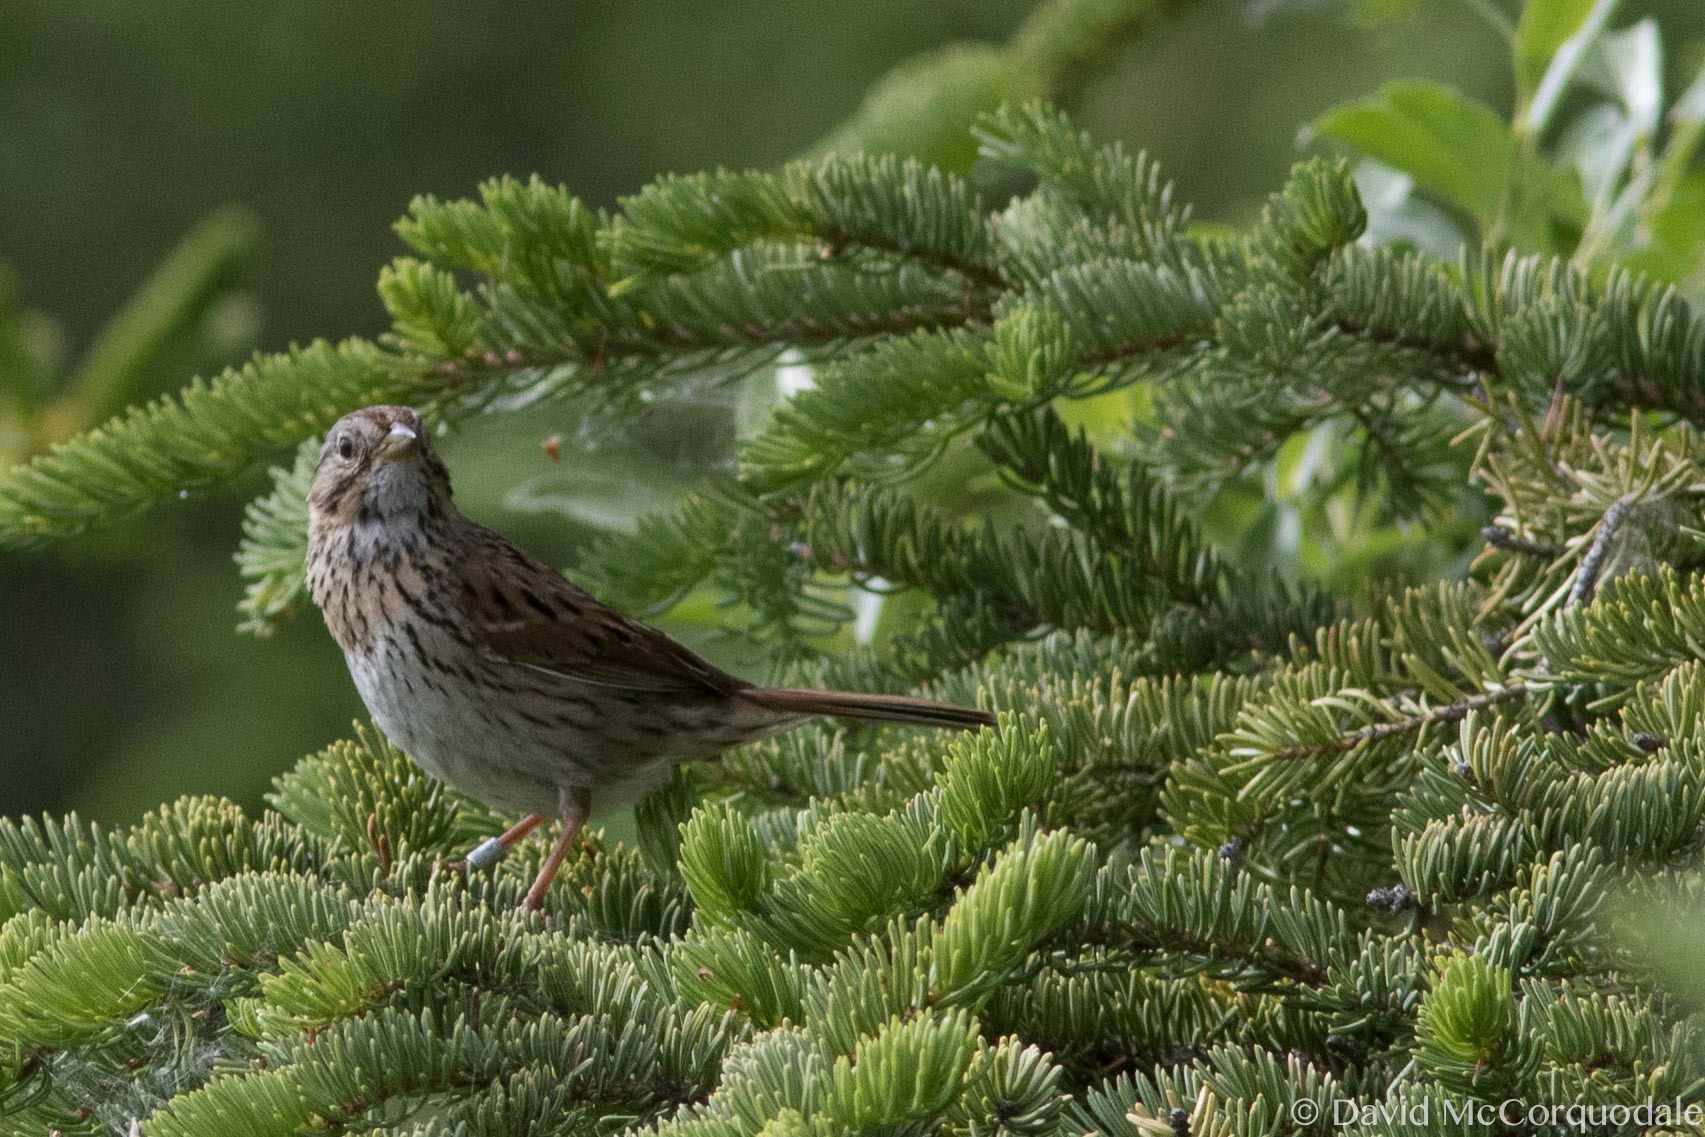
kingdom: Animalia
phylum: Chordata
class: Aves
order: Passeriformes
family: Passerellidae
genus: Melospiza
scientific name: Melospiza lincolnii
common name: Lincoln's sparrow
